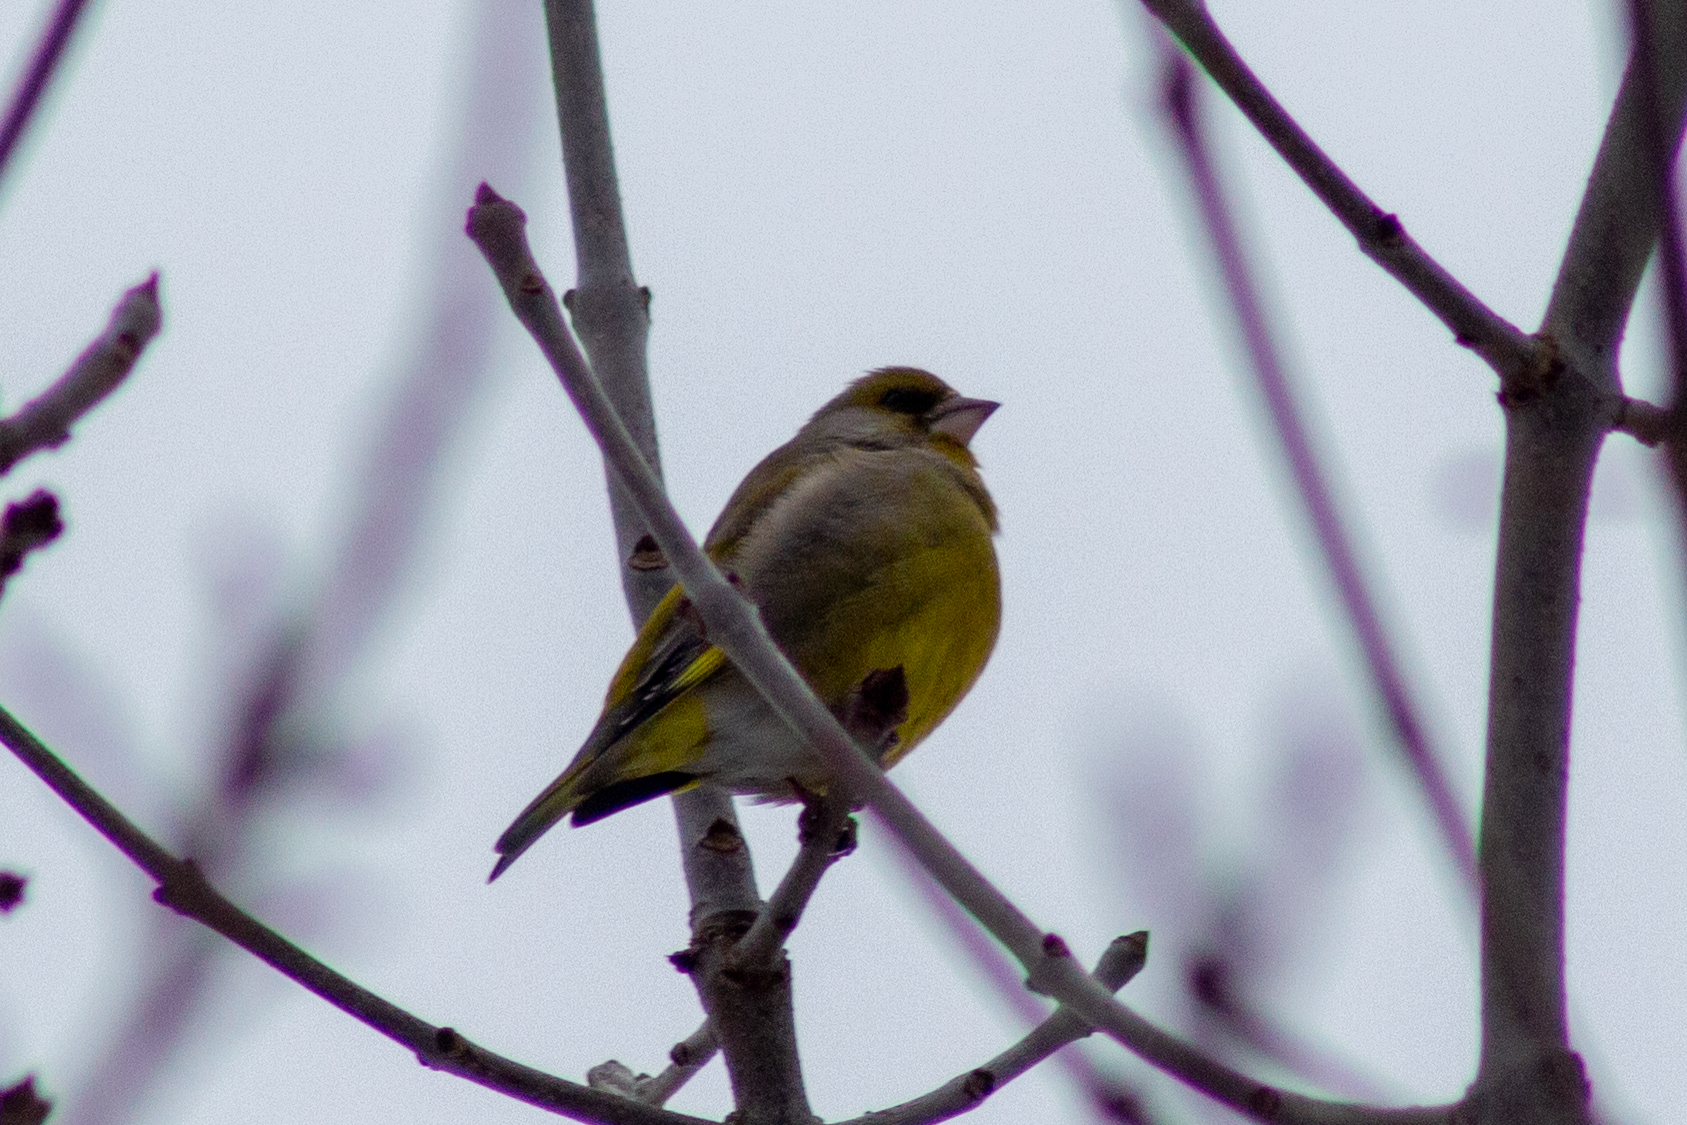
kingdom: Plantae
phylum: Tracheophyta
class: Liliopsida
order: Poales
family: Poaceae
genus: Chloris
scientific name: Chloris chloris
